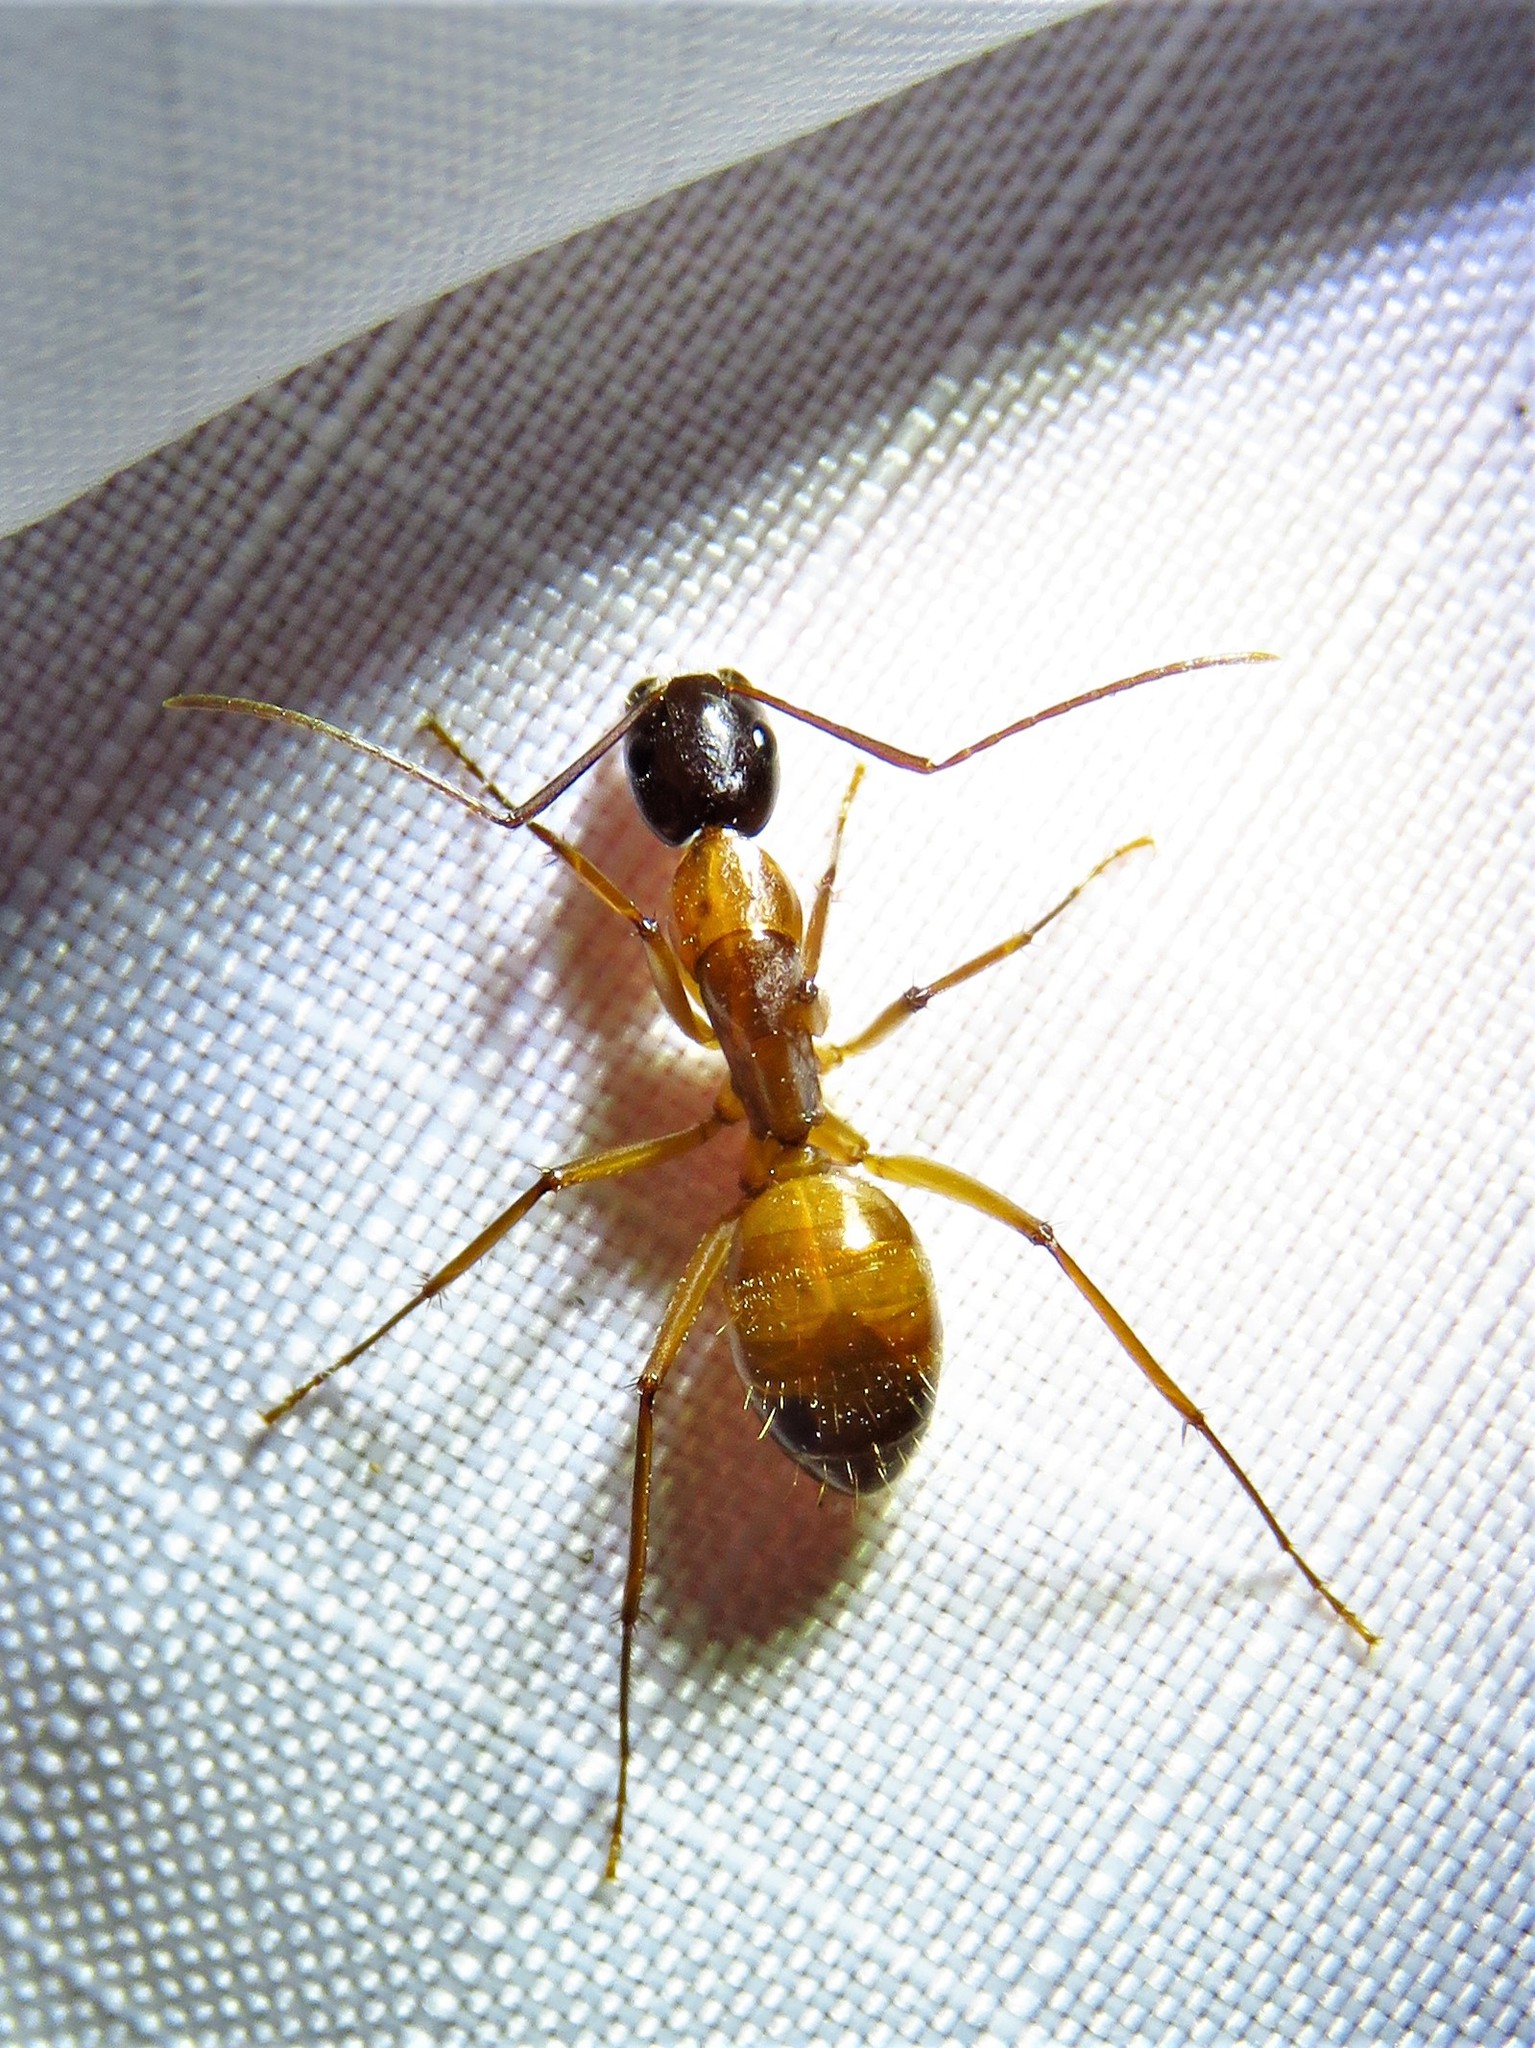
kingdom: Animalia
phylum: Arthropoda
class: Insecta
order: Hymenoptera
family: Formicidae
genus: Camponotus
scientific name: Camponotus americanus
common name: American carpenter ant
